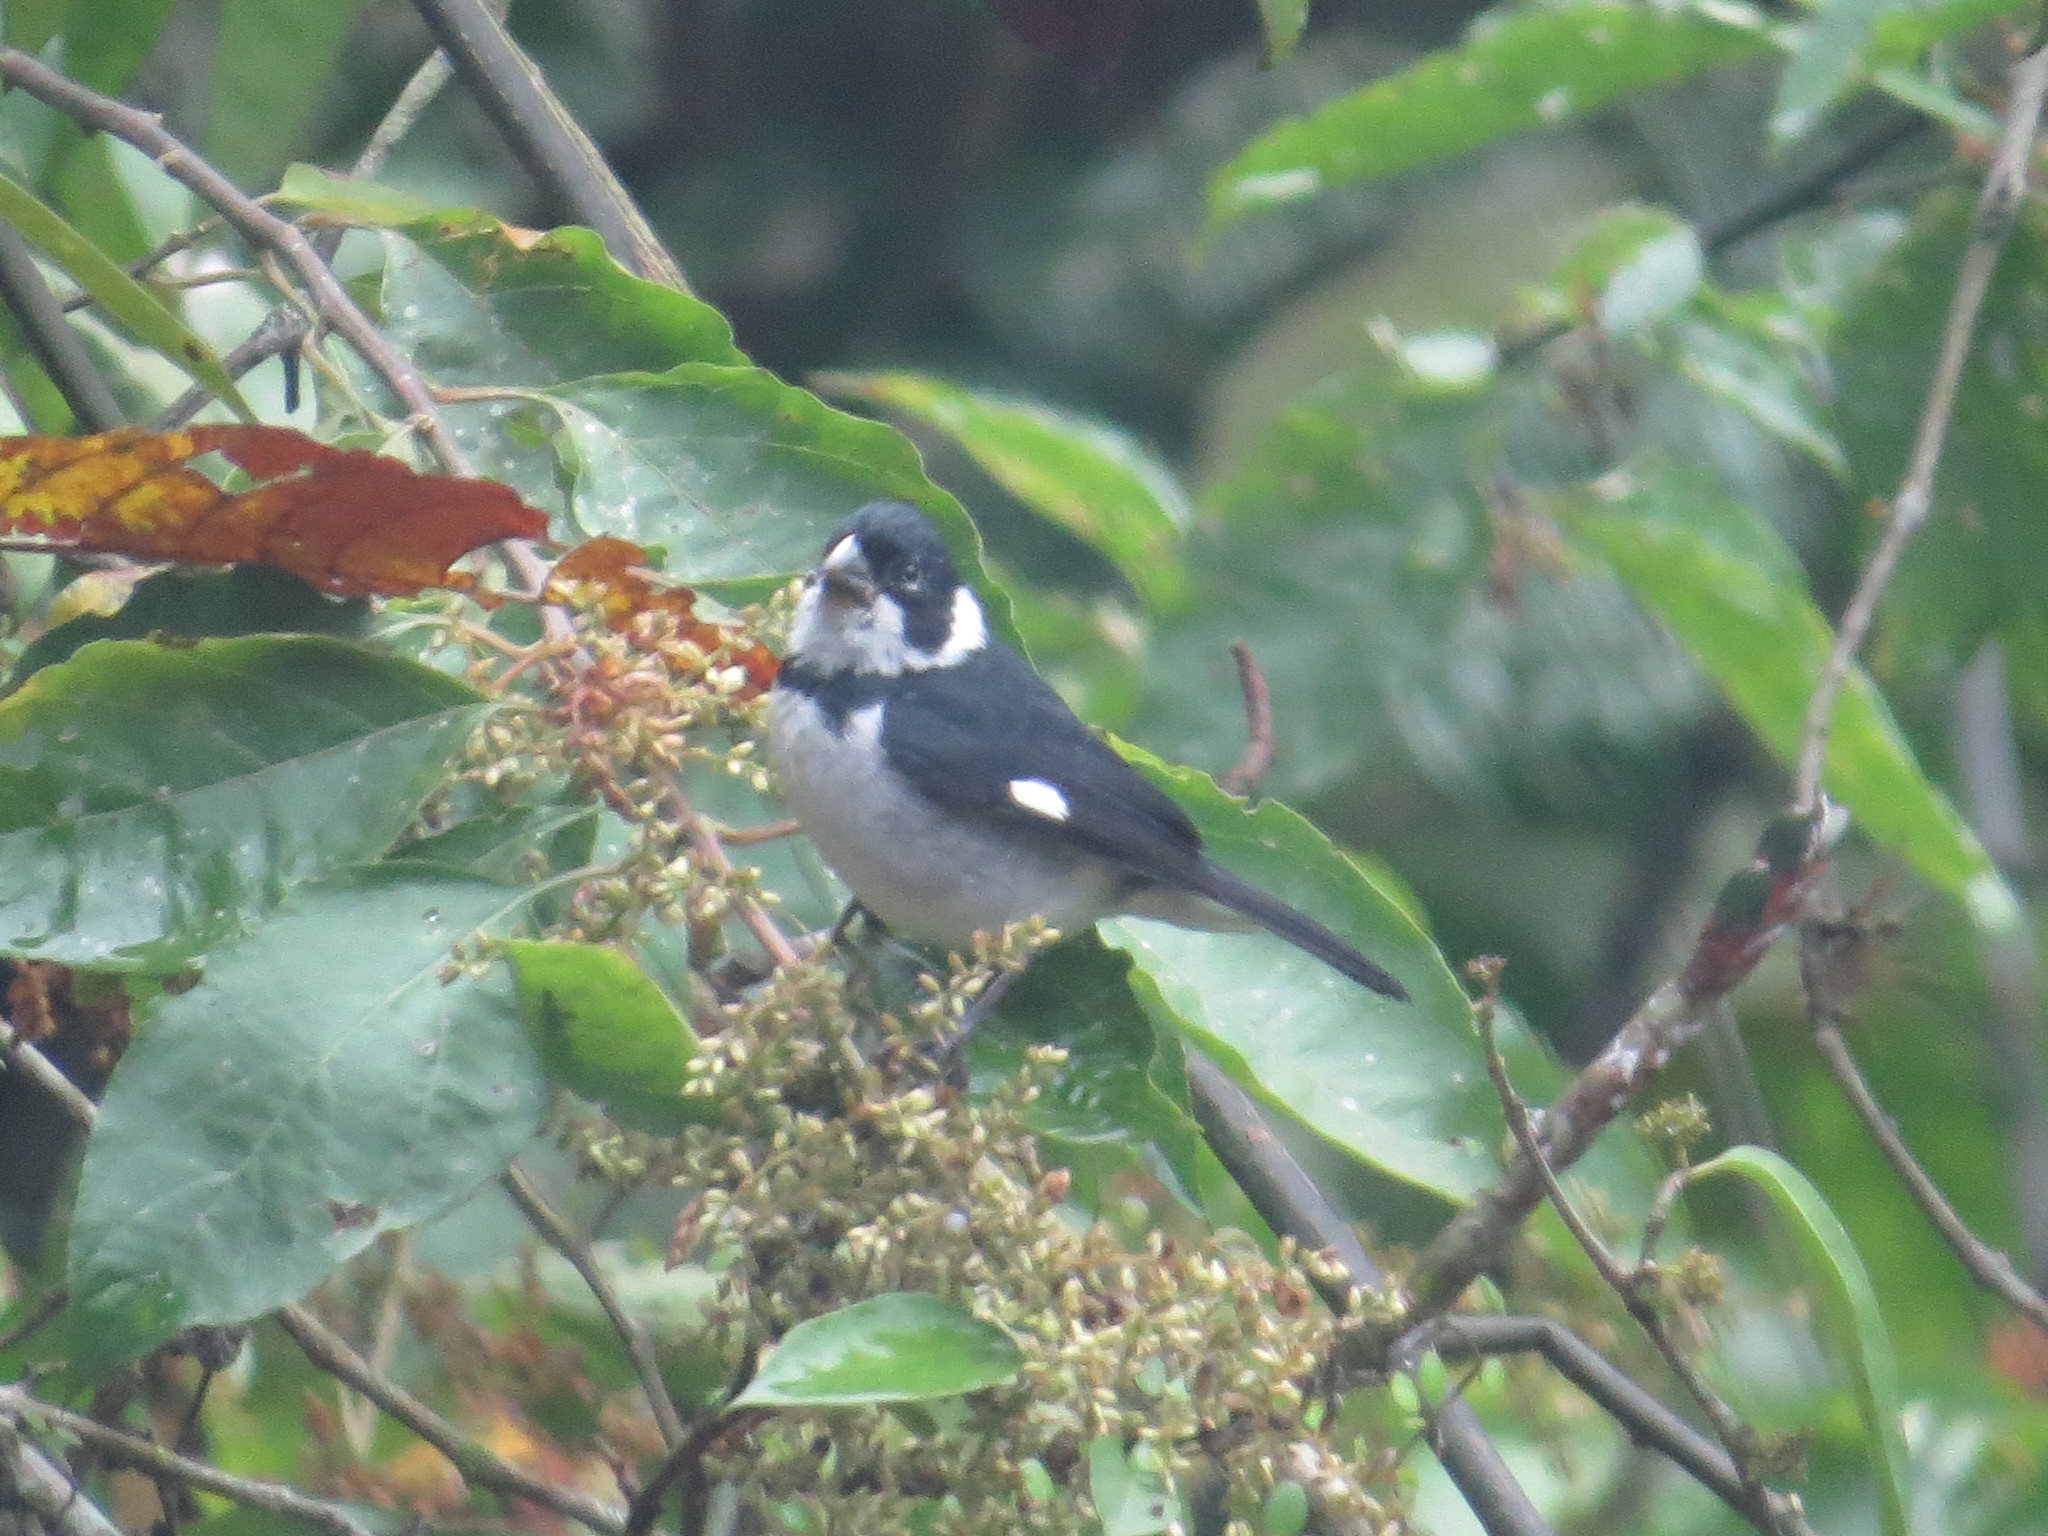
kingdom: Animalia
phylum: Chordata
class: Aves
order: Passeriformes
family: Thraupidae
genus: Sporophila
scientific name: Sporophila corvina
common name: Variable seedeater
